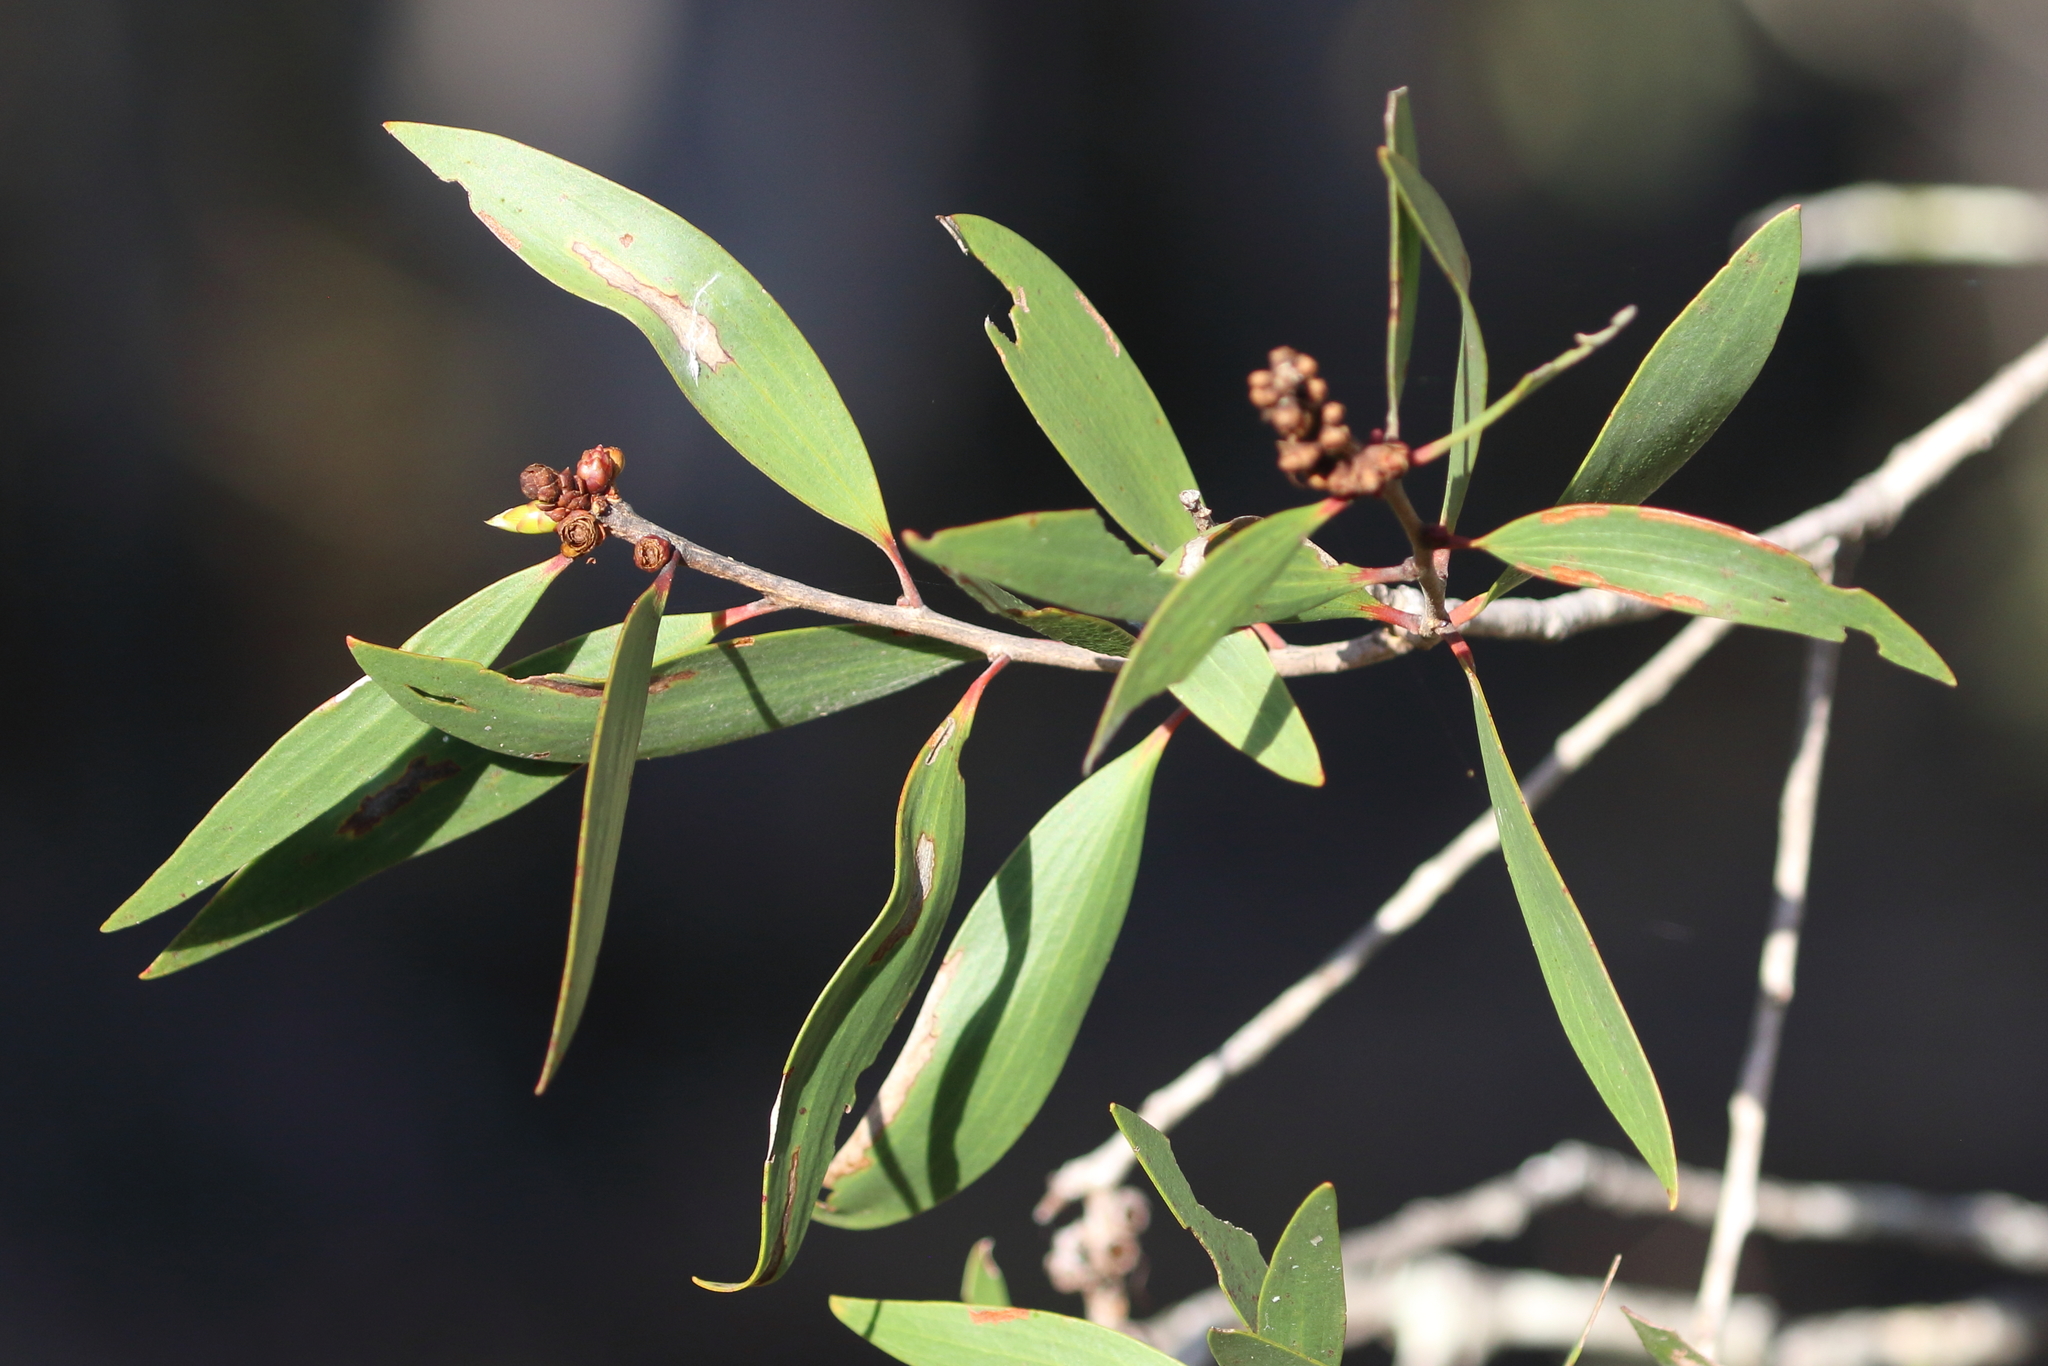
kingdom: Plantae
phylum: Tracheophyta
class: Magnoliopsida
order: Myrtales
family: Myrtaceae
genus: Melaleuca
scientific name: Melaleuca quinquenervia
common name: Punktree
